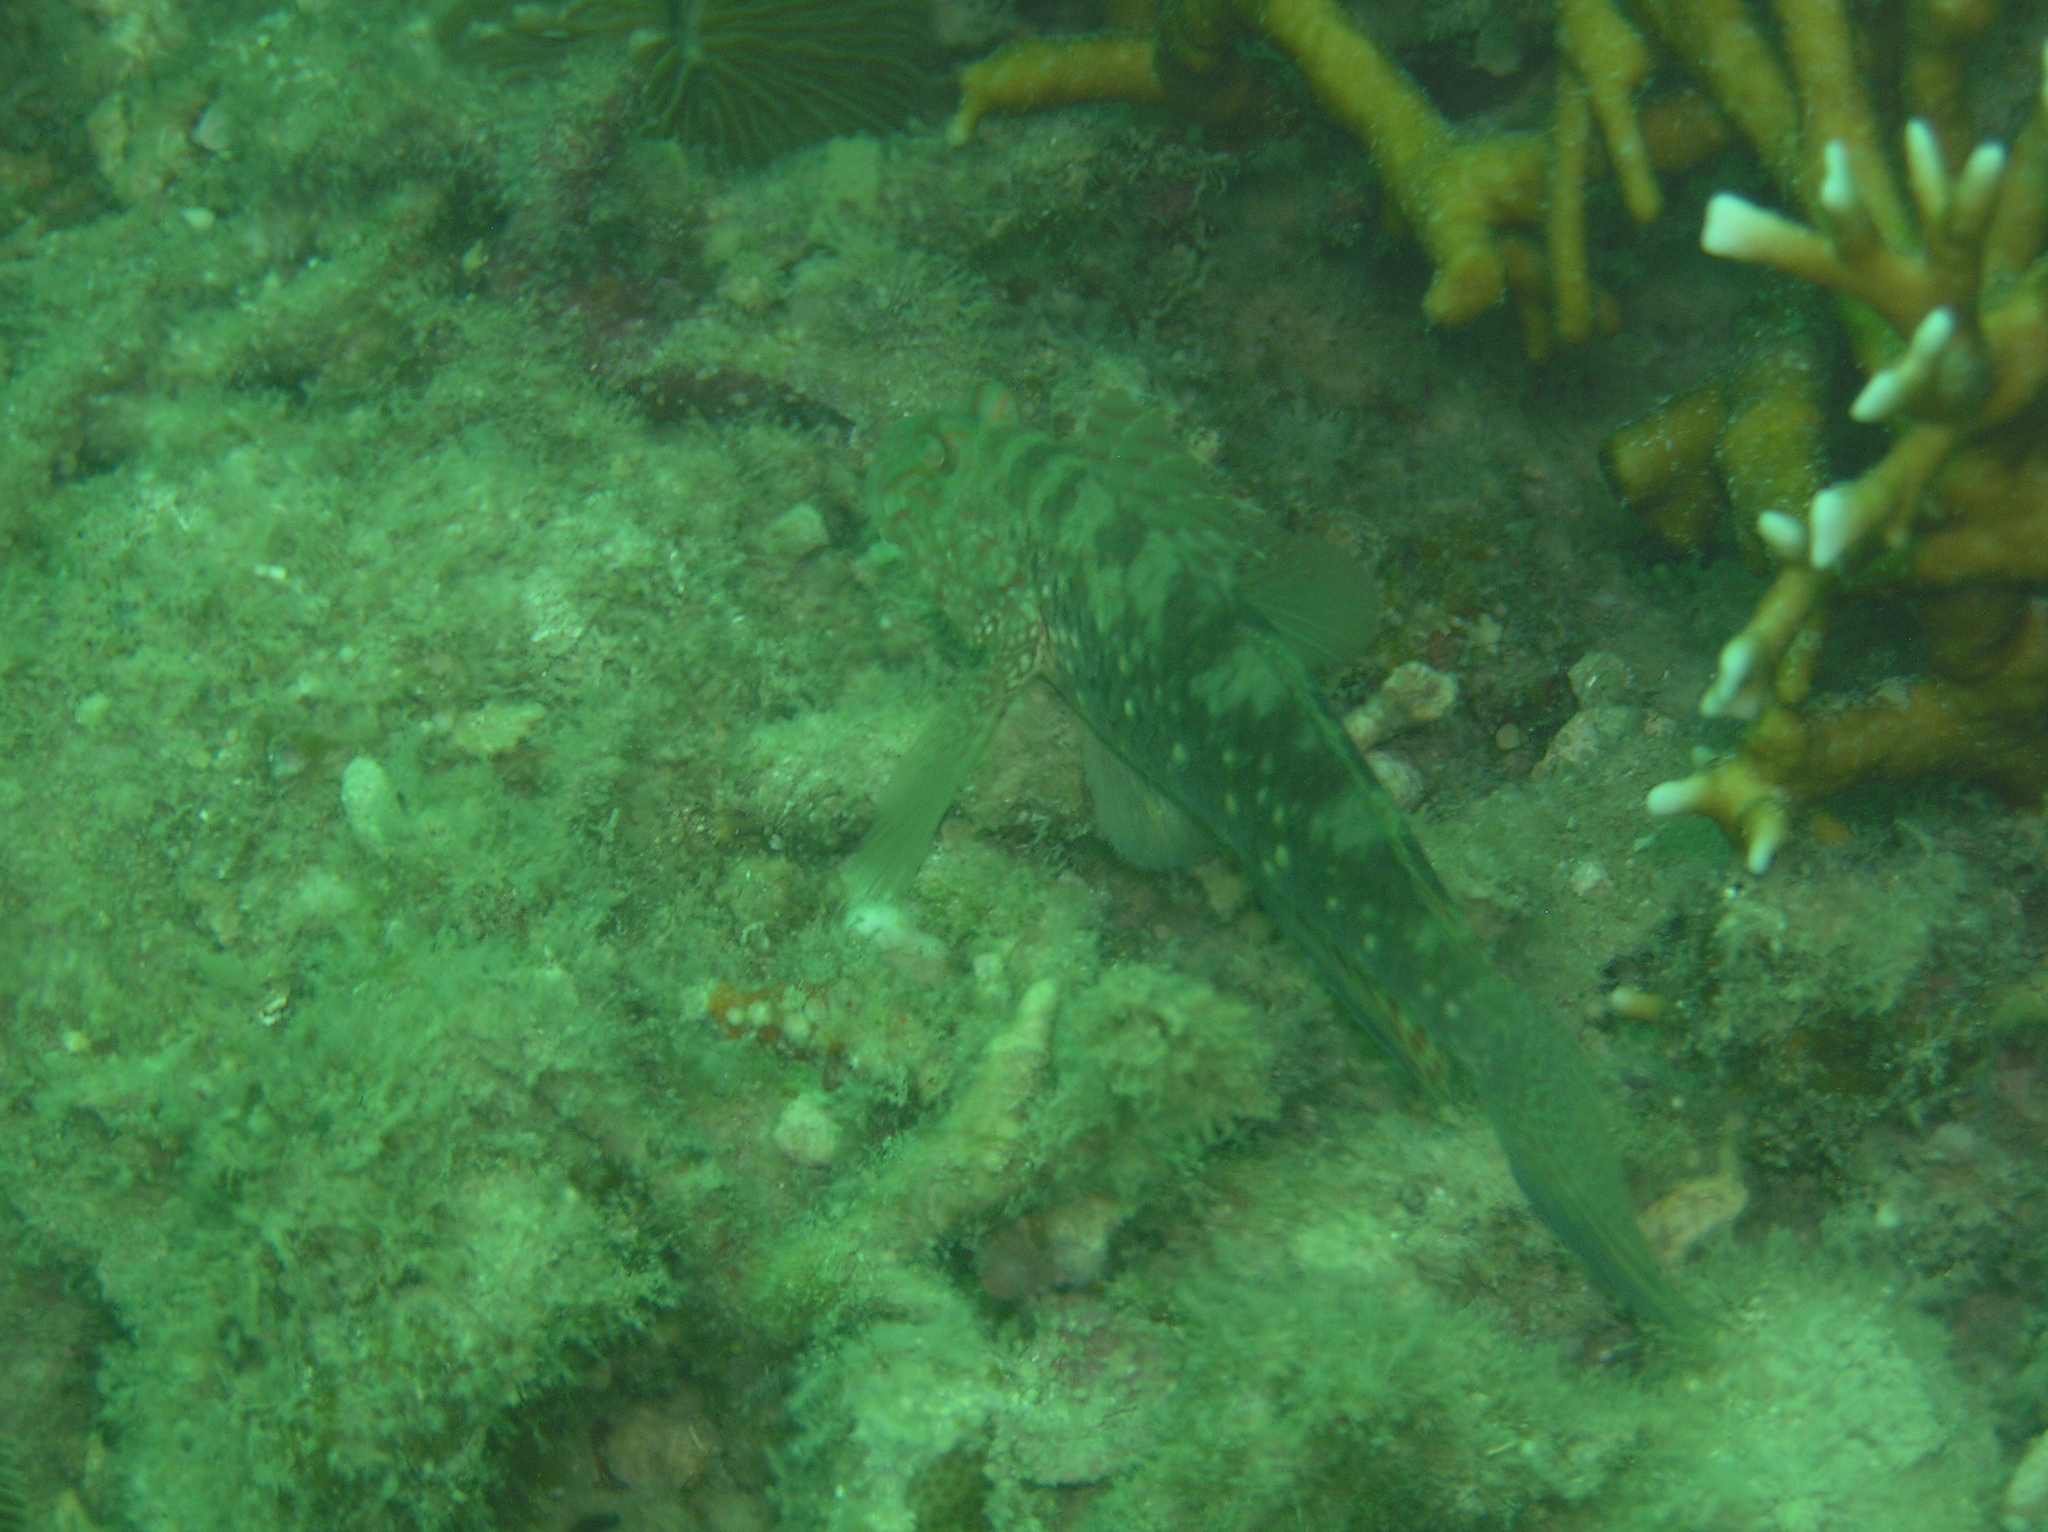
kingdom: Animalia
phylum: Chordata
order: Perciformes
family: Gobiidae
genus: Exyrias
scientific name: Exyrias belissimus
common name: Mud reef-goby
